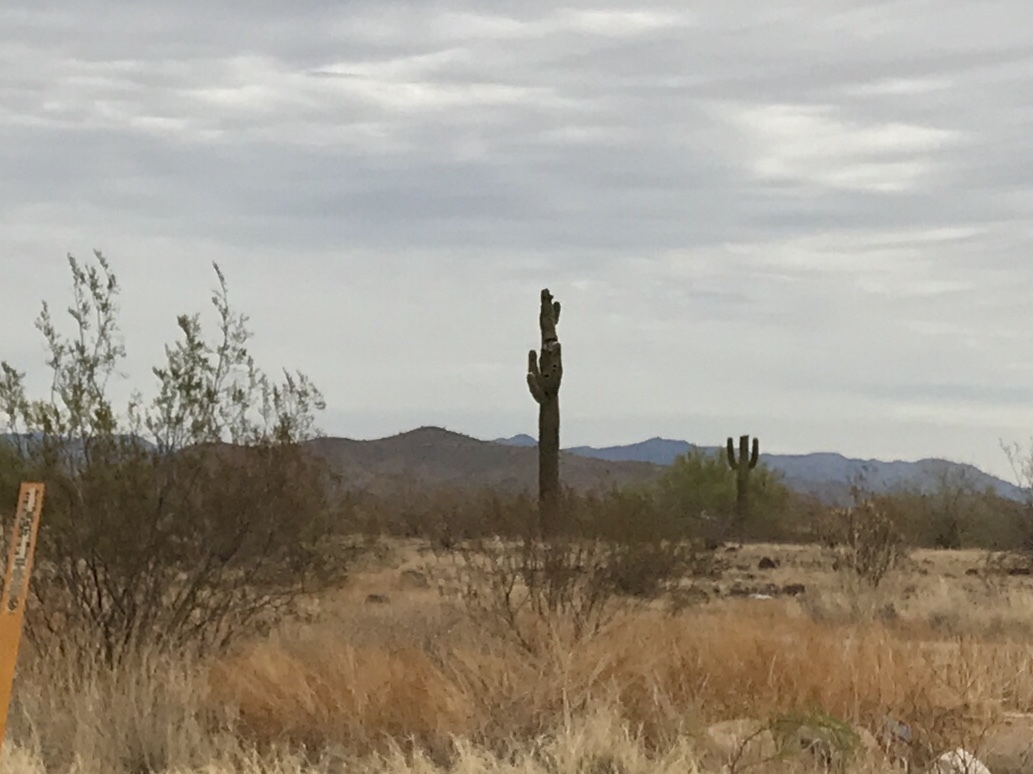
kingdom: Plantae
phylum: Tracheophyta
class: Magnoliopsida
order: Caryophyllales
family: Cactaceae
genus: Carnegiea
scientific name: Carnegiea gigantea
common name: Saguaro
